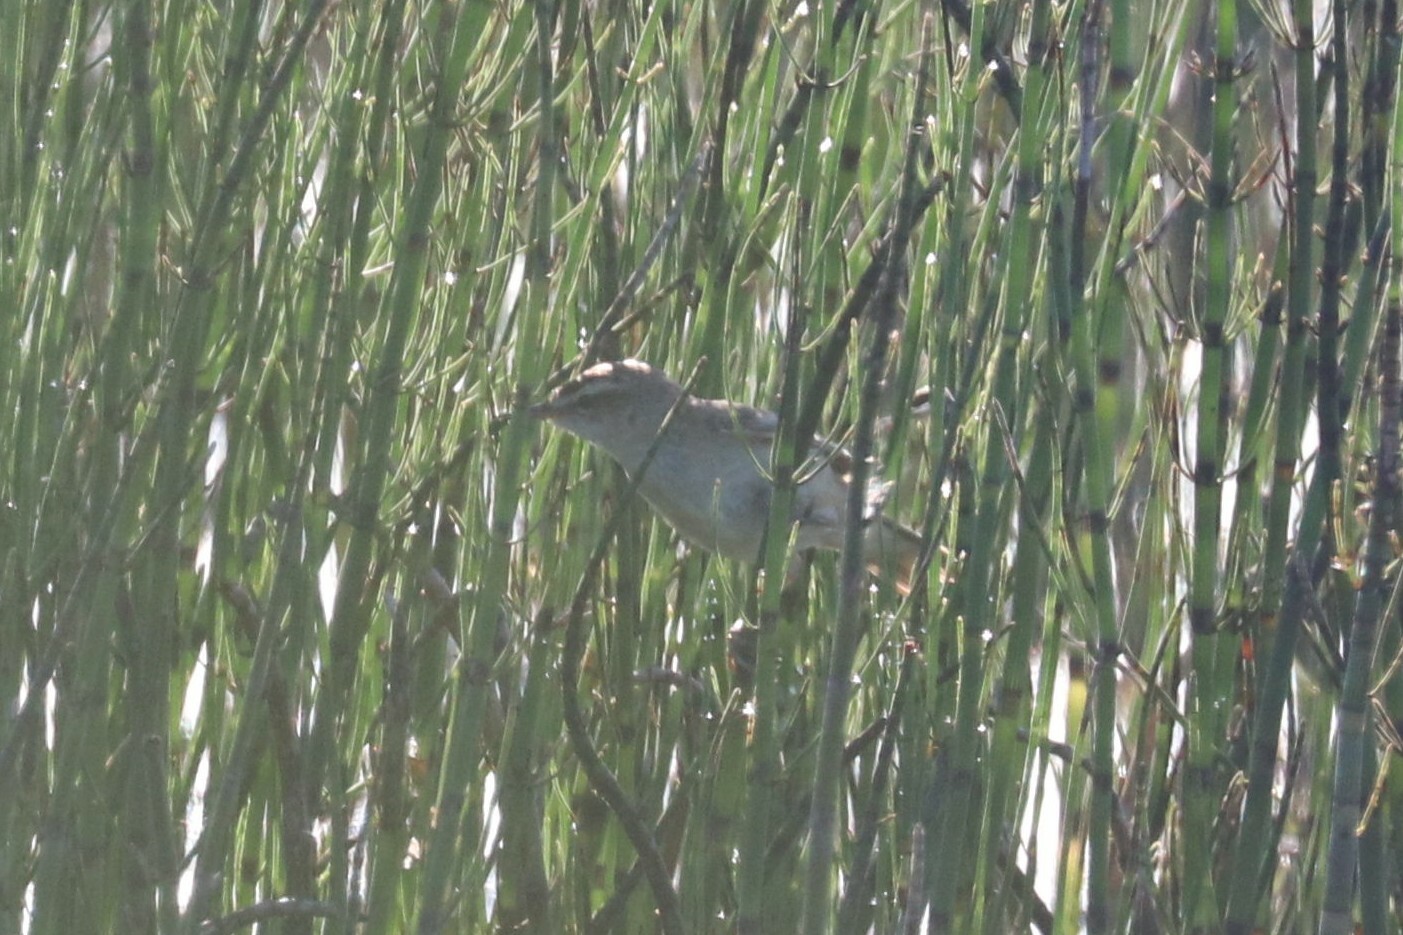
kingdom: Animalia
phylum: Chordata
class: Aves
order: Passeriformes
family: Acrocephalidae
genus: Acrocephalus
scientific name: Acrocephalus schoenobaenus
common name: Sedge warbler
